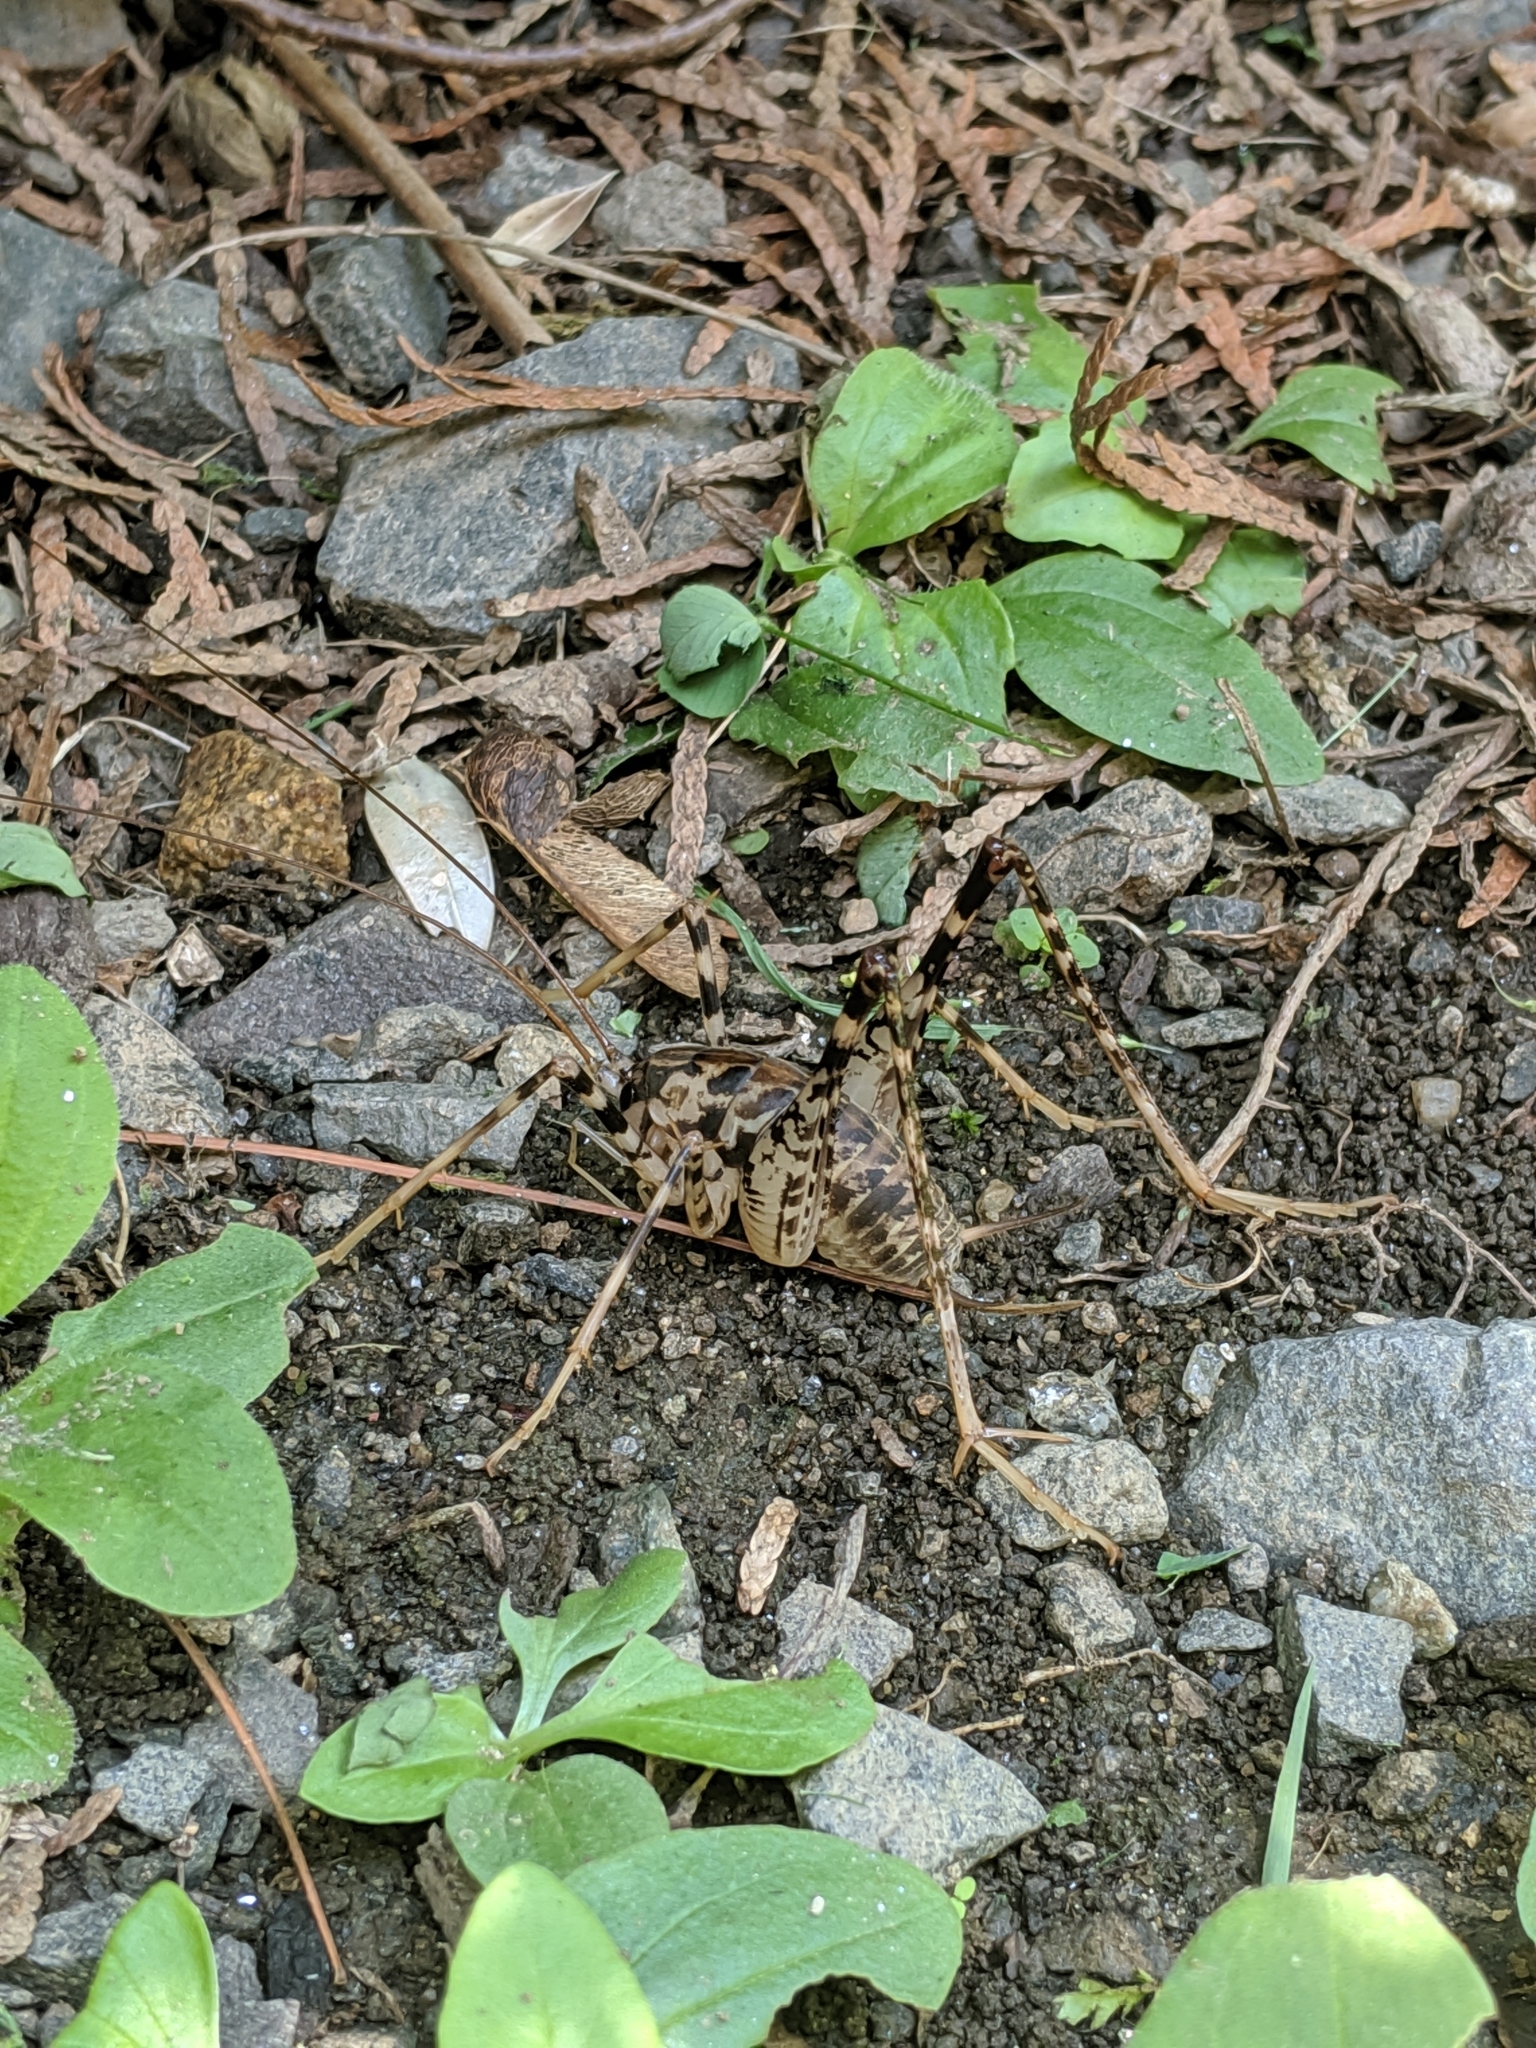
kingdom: Animalia
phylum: Arthropoda
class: Insecta
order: Orthoptera
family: Rhaphidophoridae
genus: Diestrammena
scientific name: Diestrammena japanica
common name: Japanese camel cricket
